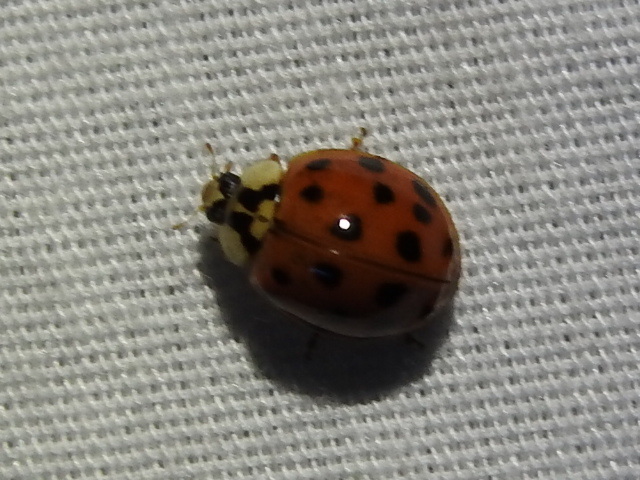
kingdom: Animalia
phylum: Arthropoda
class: Insecta
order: Coleoptera
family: Coccinellidae
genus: Harmonia
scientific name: Harmonia axyridis
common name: Harlequin ladybird
